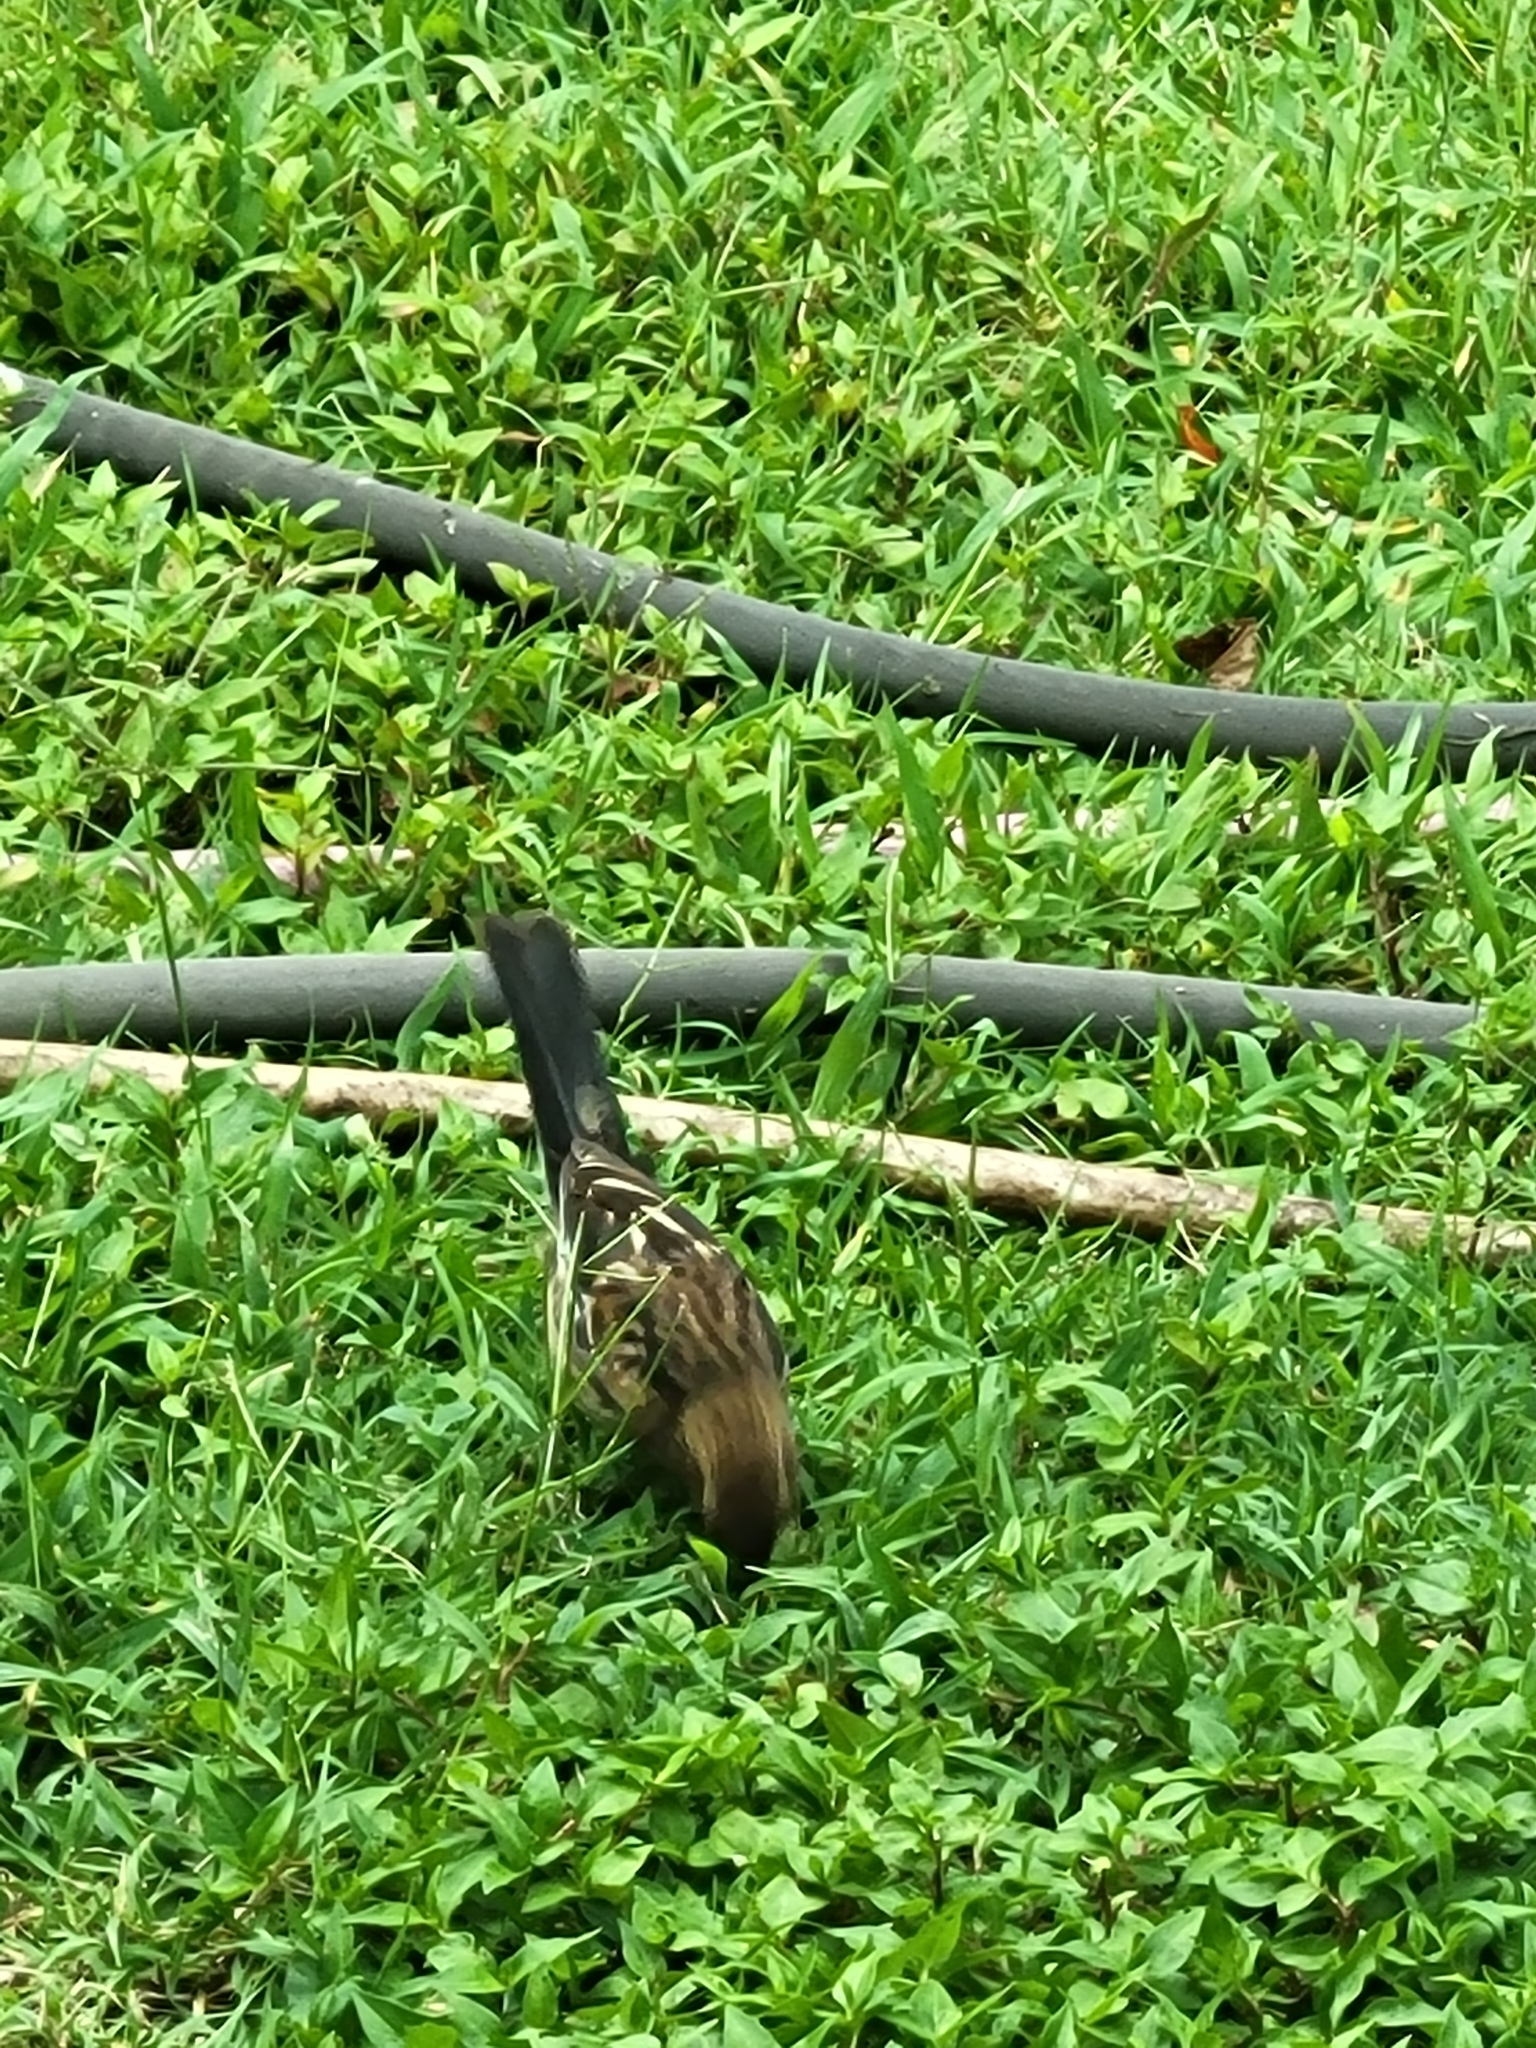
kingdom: Animalia
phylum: Chordata
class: Aves
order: Passeriformes
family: Passerellidae
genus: Pipilo
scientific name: Pipilo erythrophthalmus
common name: Eastern towhee
